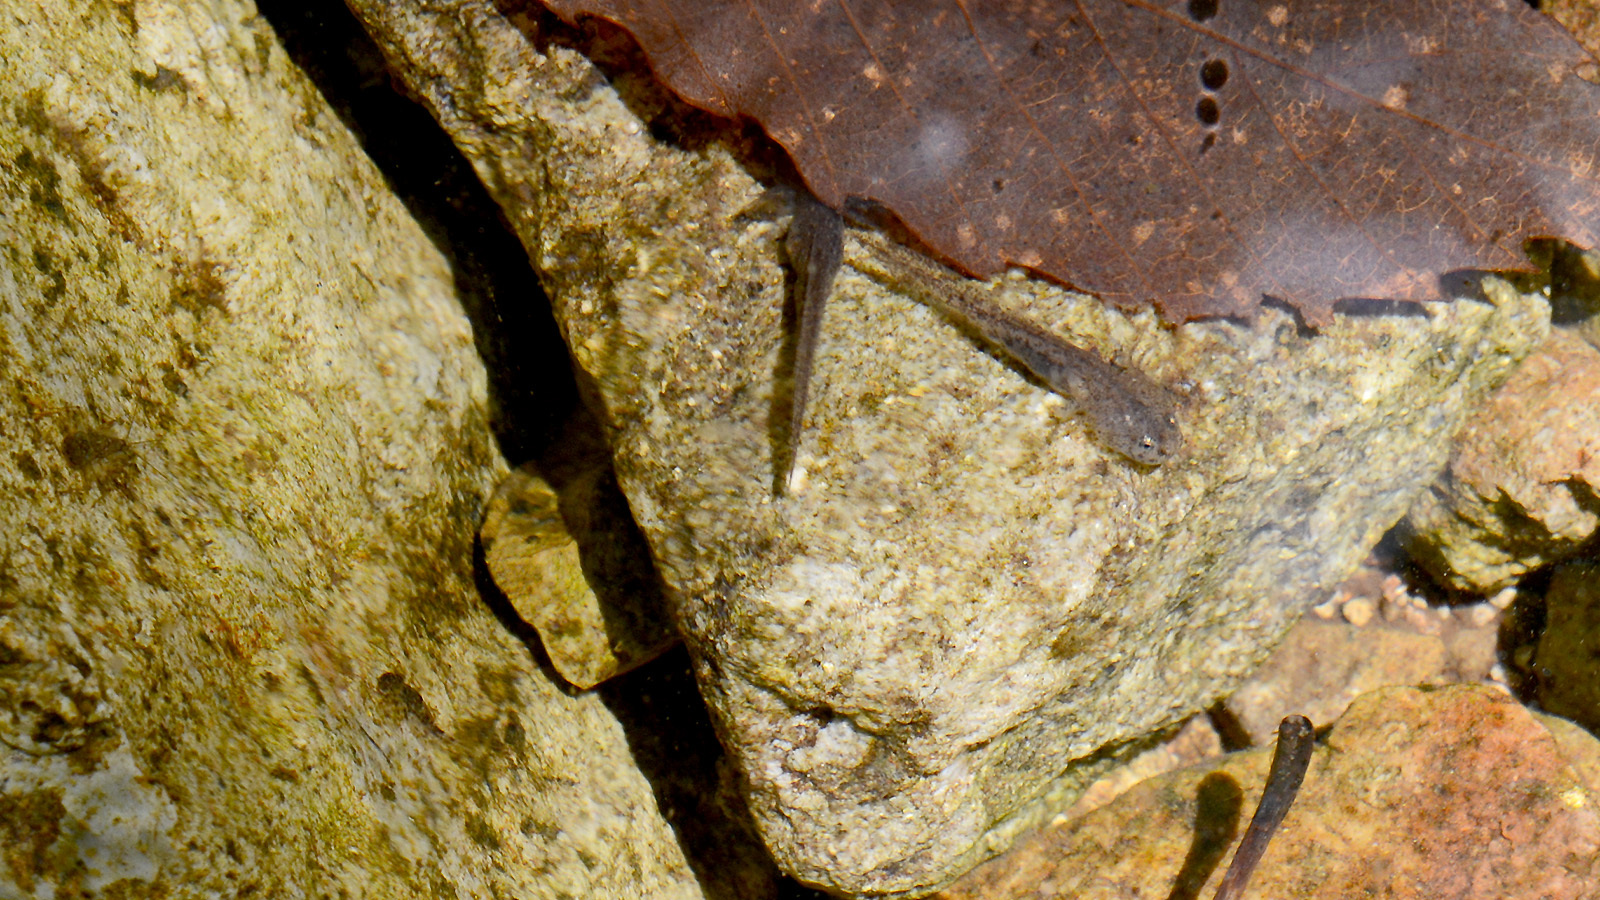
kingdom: Animalia
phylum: Chordata
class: Amphibia
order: Caudata
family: Hynobiidae
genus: Hynobius
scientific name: Hynobius leechii
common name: Gensan salamander
